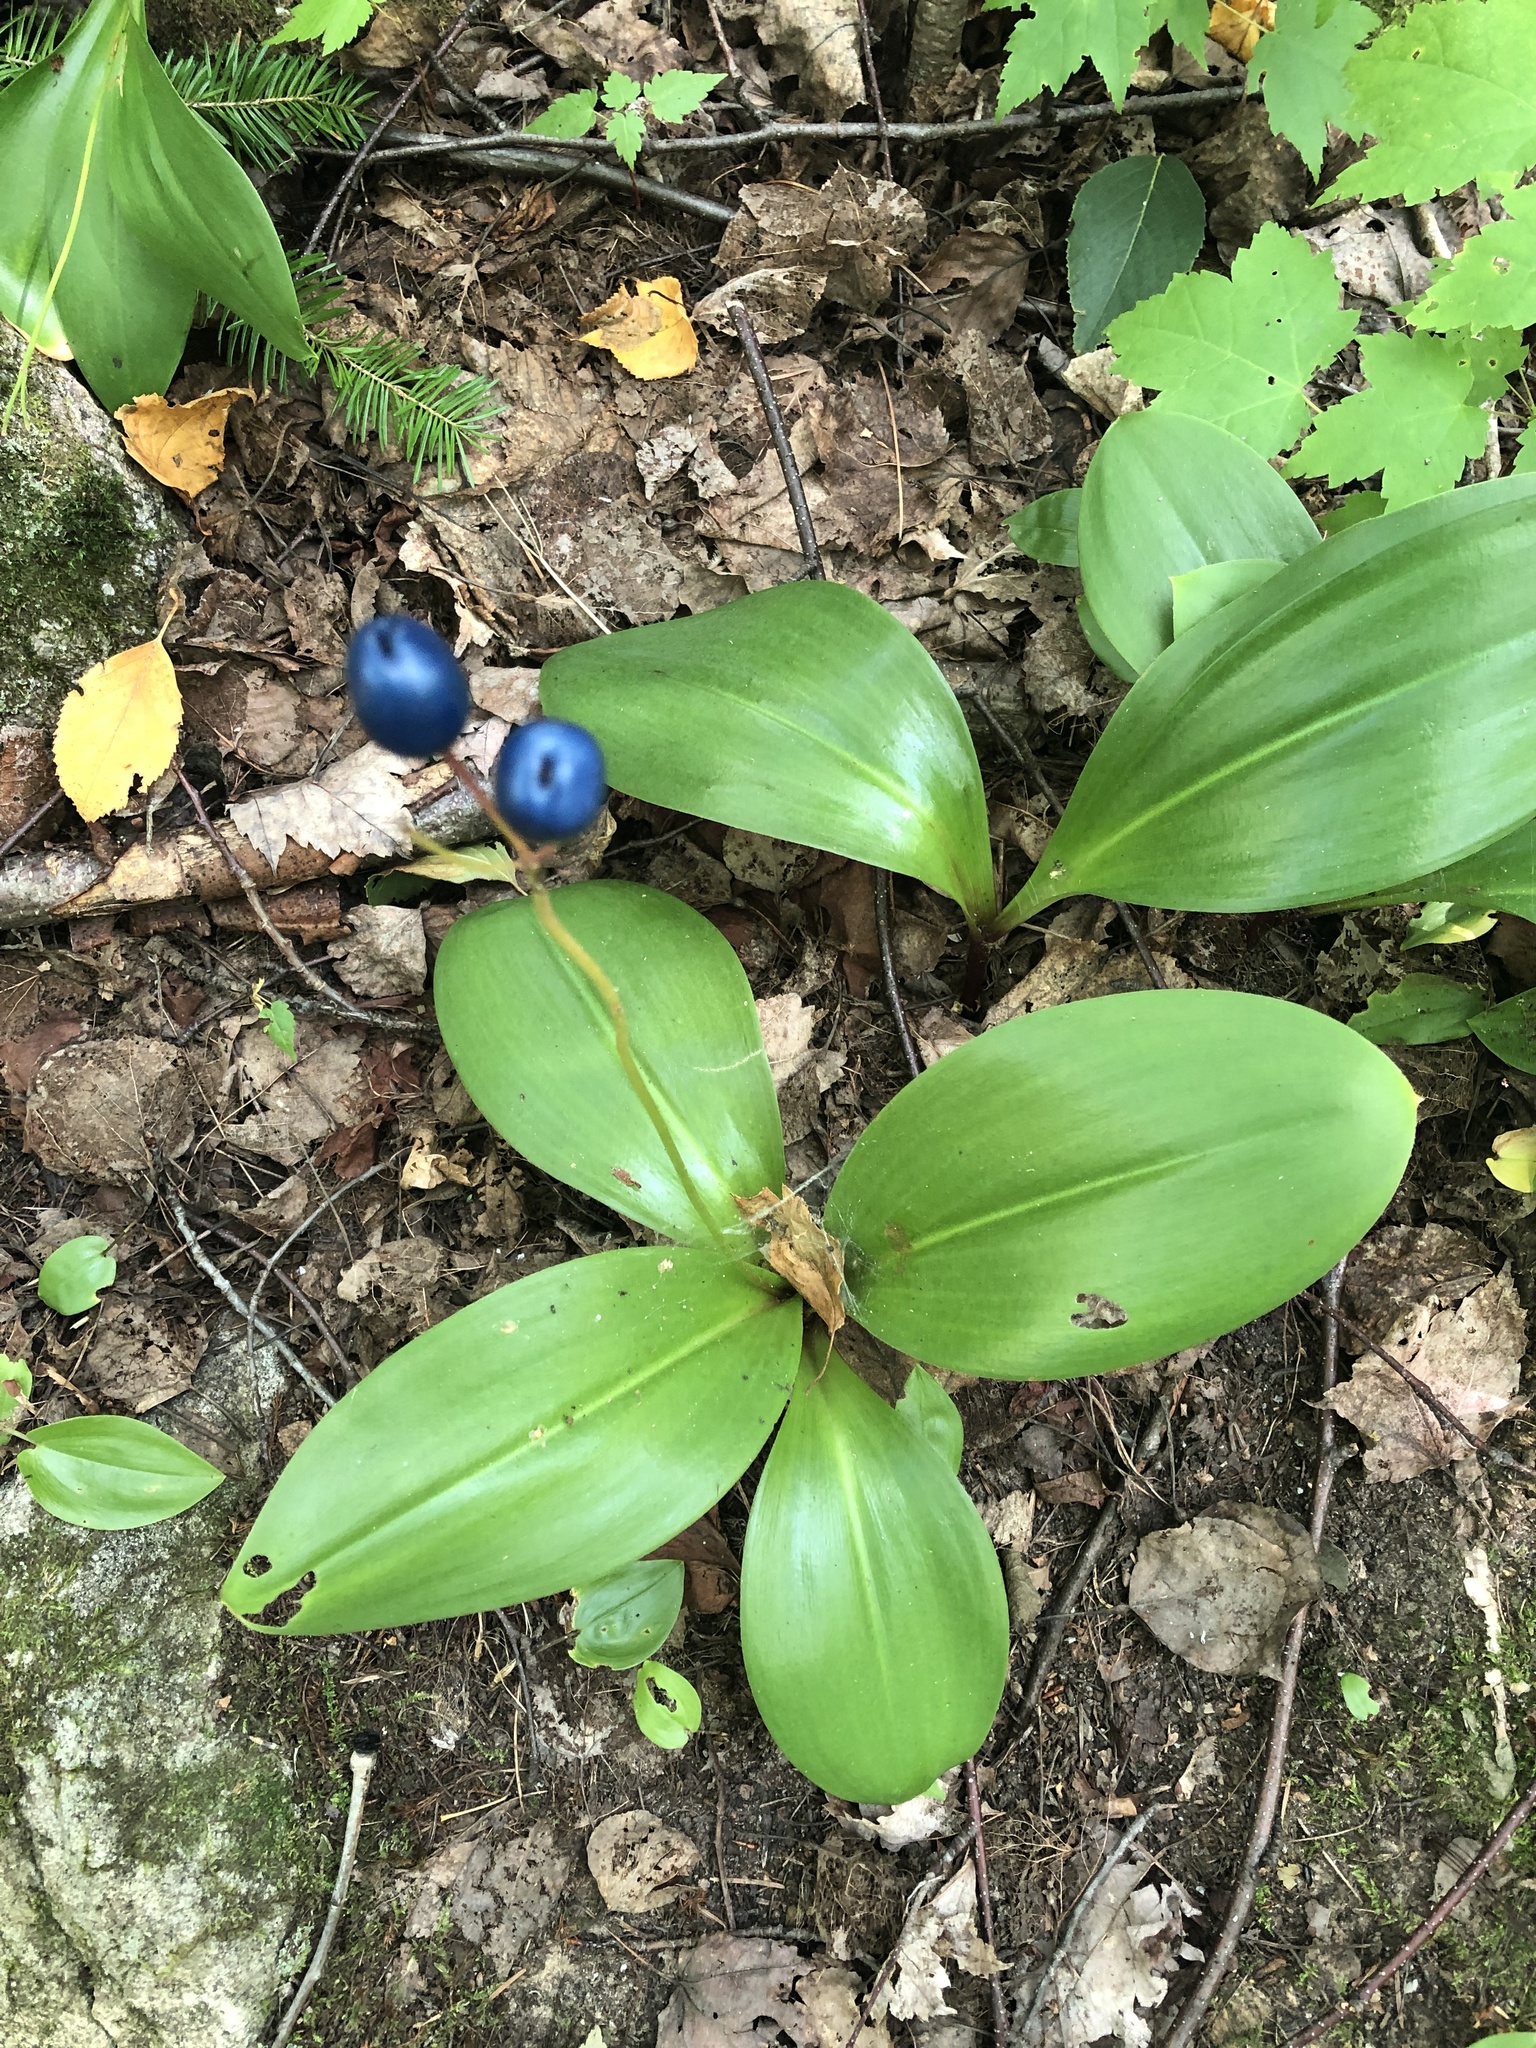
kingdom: Plantae
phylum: Tracheophyta
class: Liliopsida
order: Liliales
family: Liliaceae
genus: Clintonia
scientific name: Clintonia borealis
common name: Yellow clintonia
